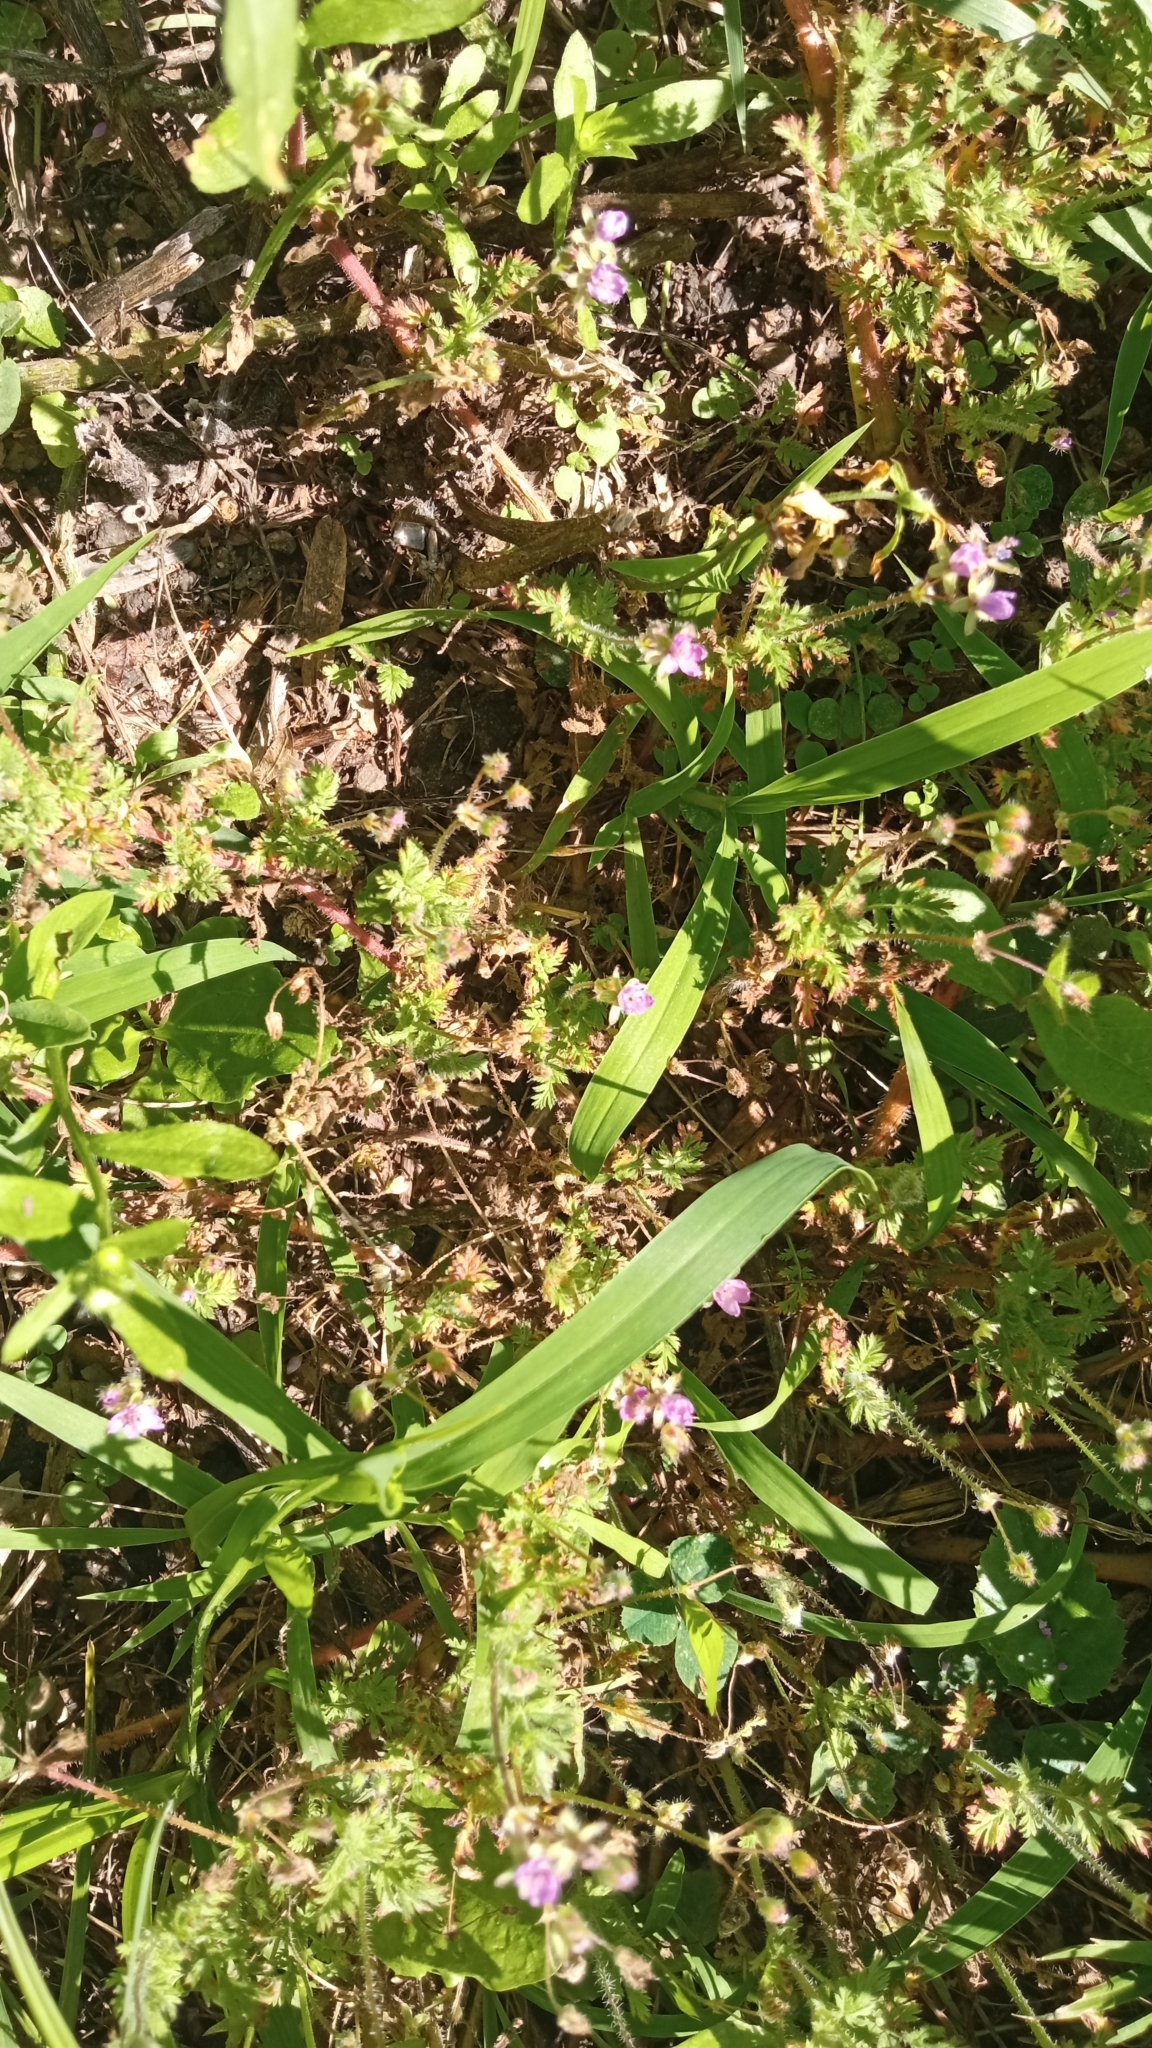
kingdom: Plantae
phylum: Tracheophyta
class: Magnoliopsida
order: Geraniales
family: Geraniaceae
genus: Erodium
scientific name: Erodium cicutarium
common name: Common stork's-bill
